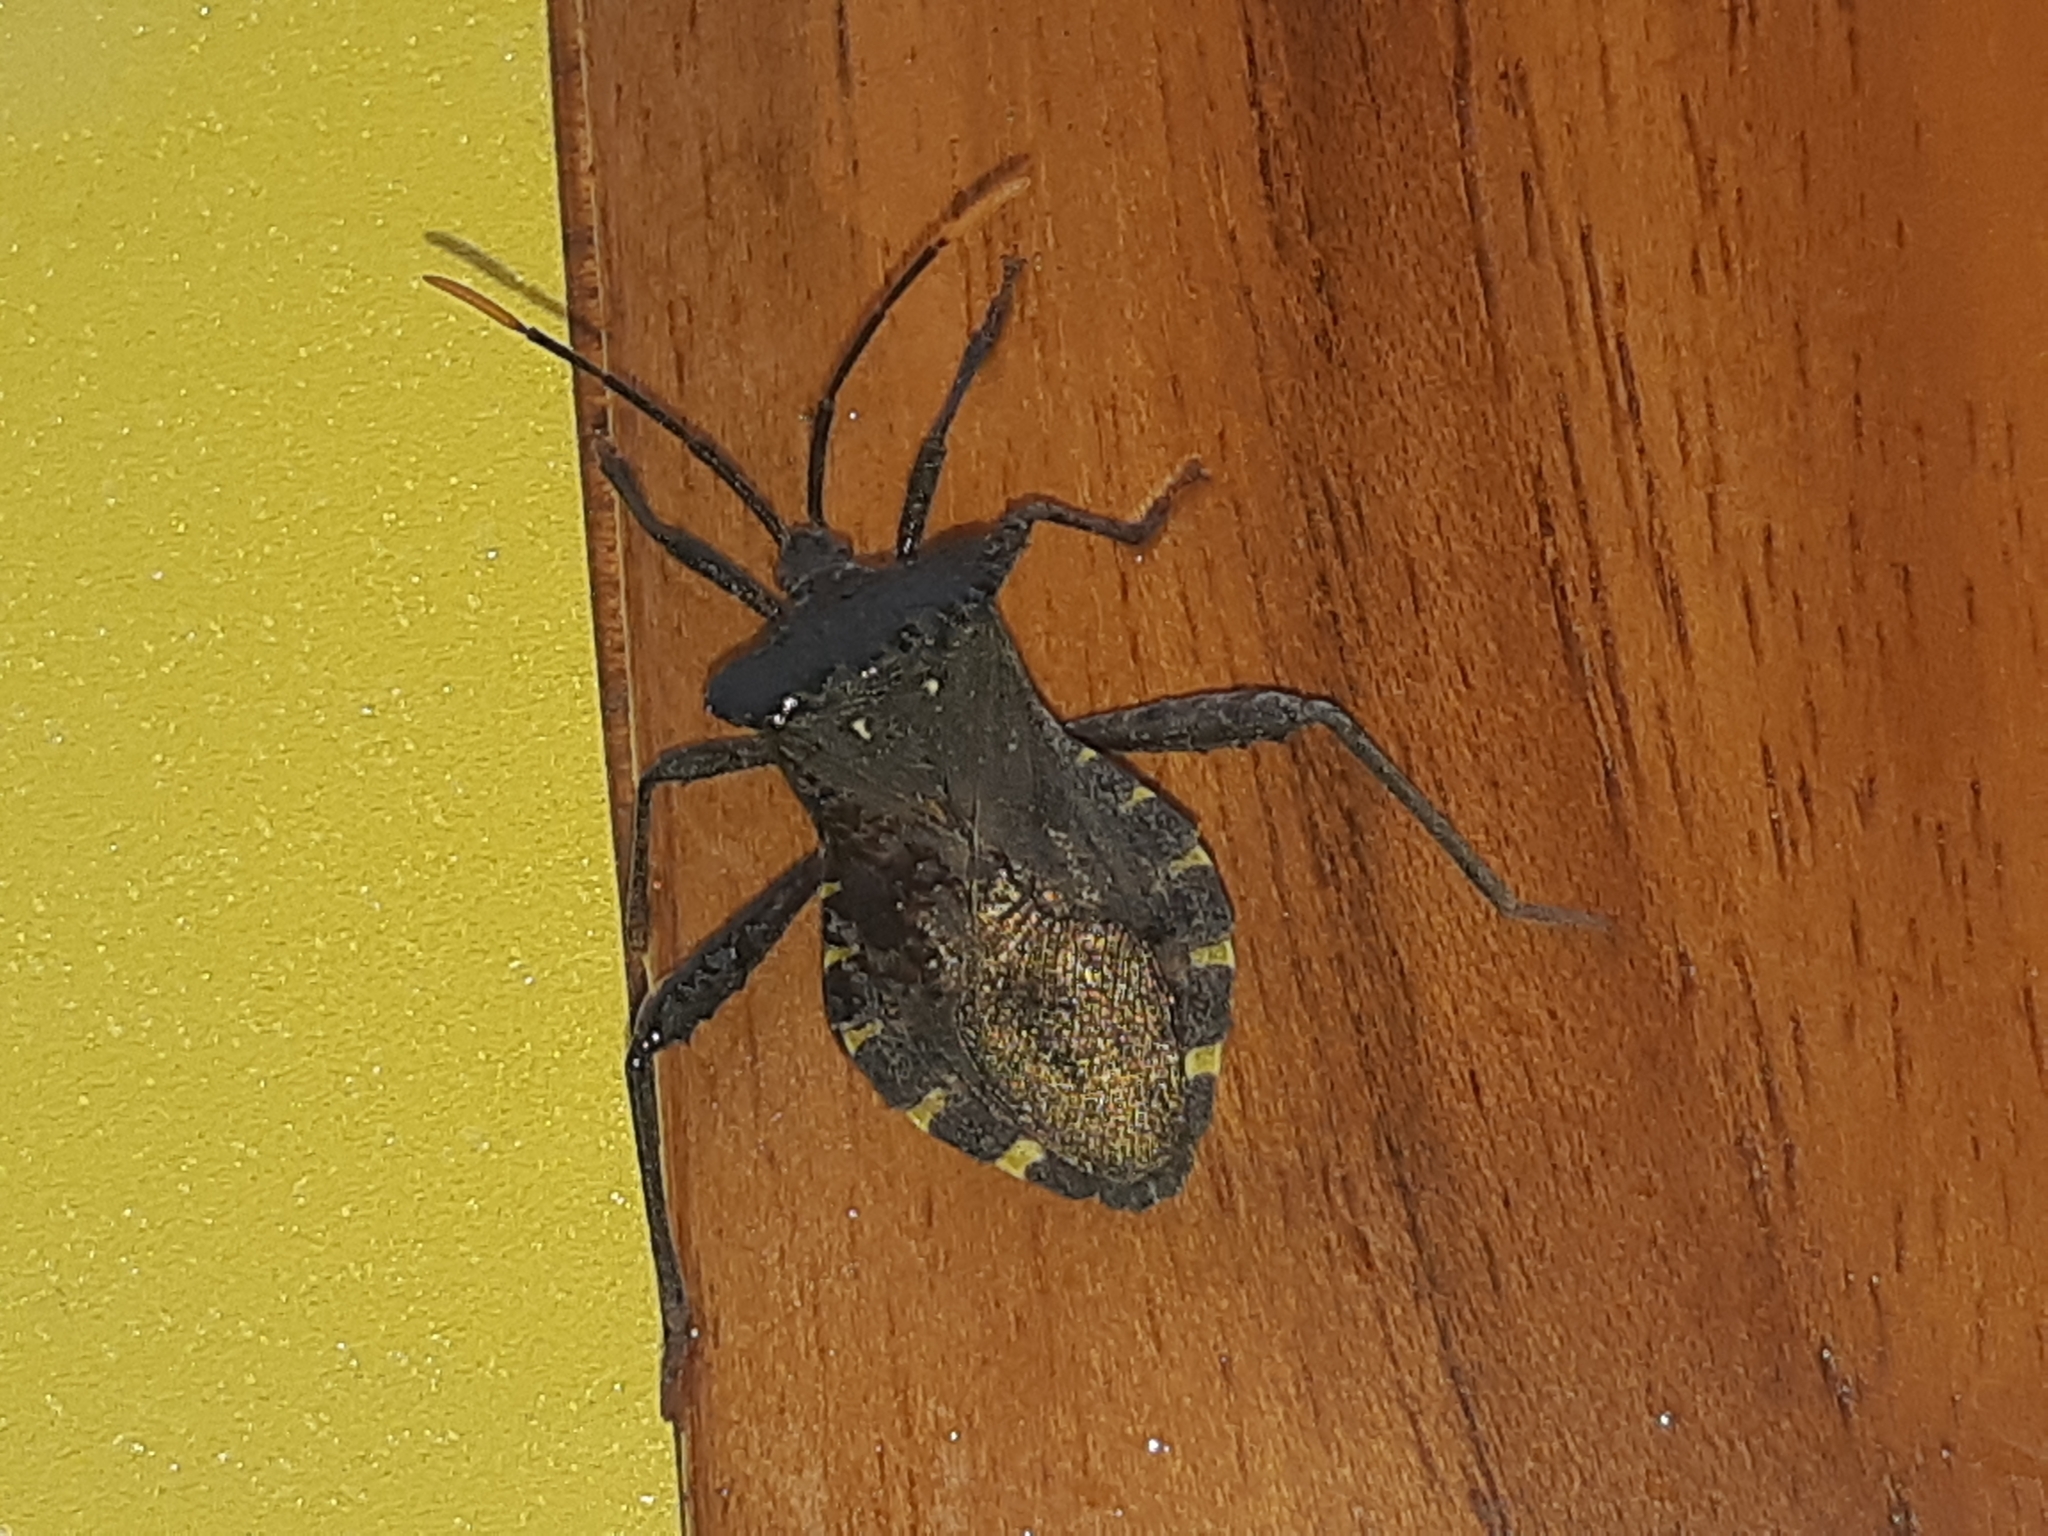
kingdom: Animalia
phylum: Arthropoda
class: Insecta
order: Hemiptera
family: Coreidae
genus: Piezogaster
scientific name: Piezogaster obscuratus
